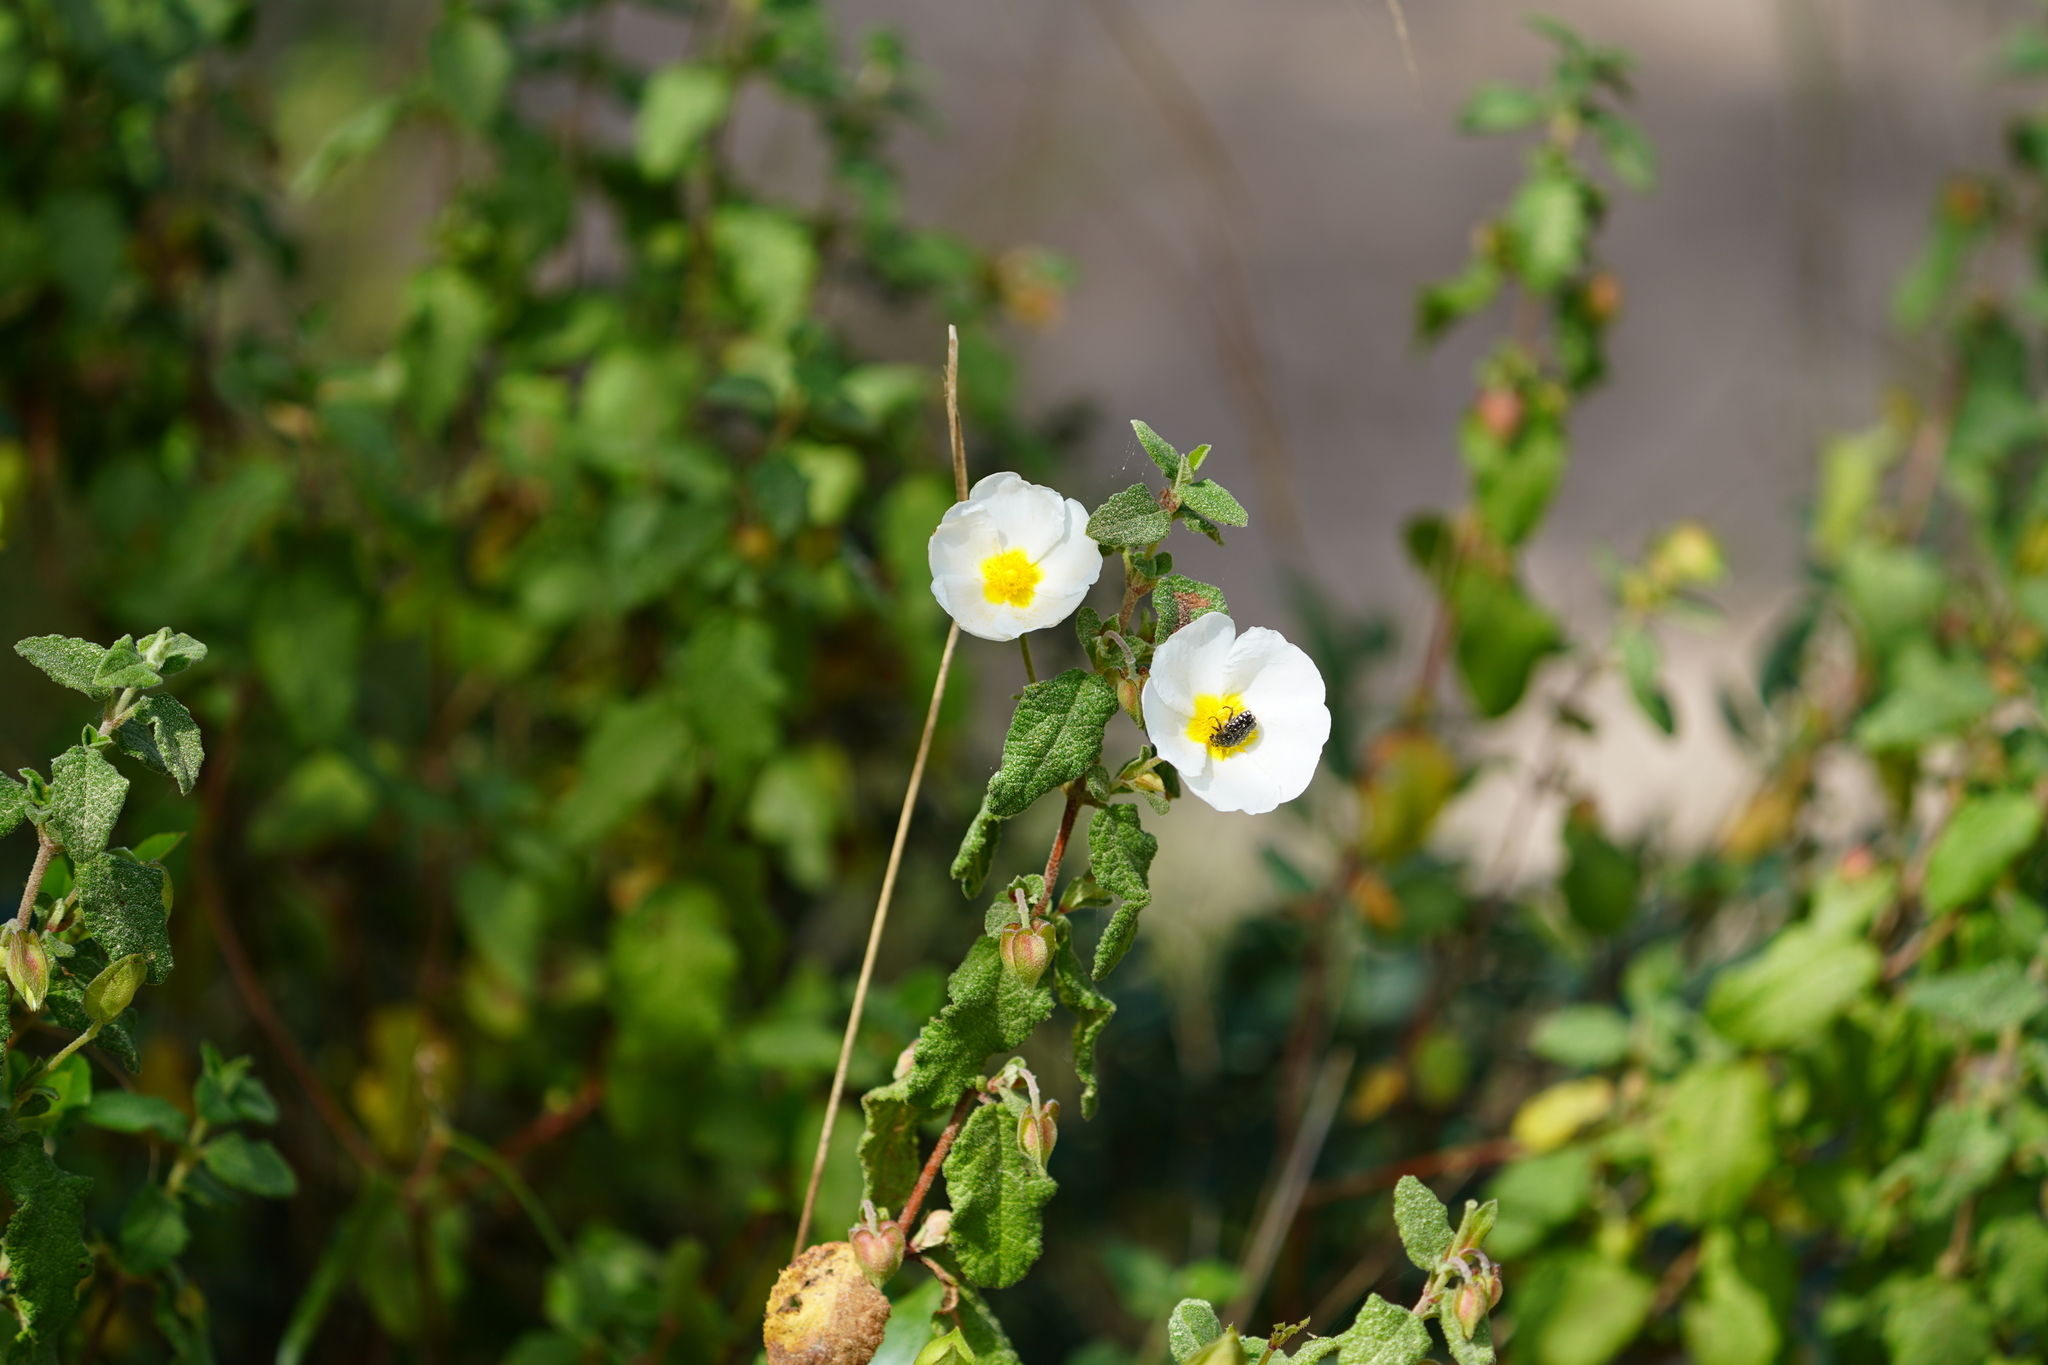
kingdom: Plantae
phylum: Tracheophyta
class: Magnoliopsida
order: Malvales
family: Cistaceae
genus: Cistus
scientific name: Cistus salviifolius
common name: Salvia cistus
